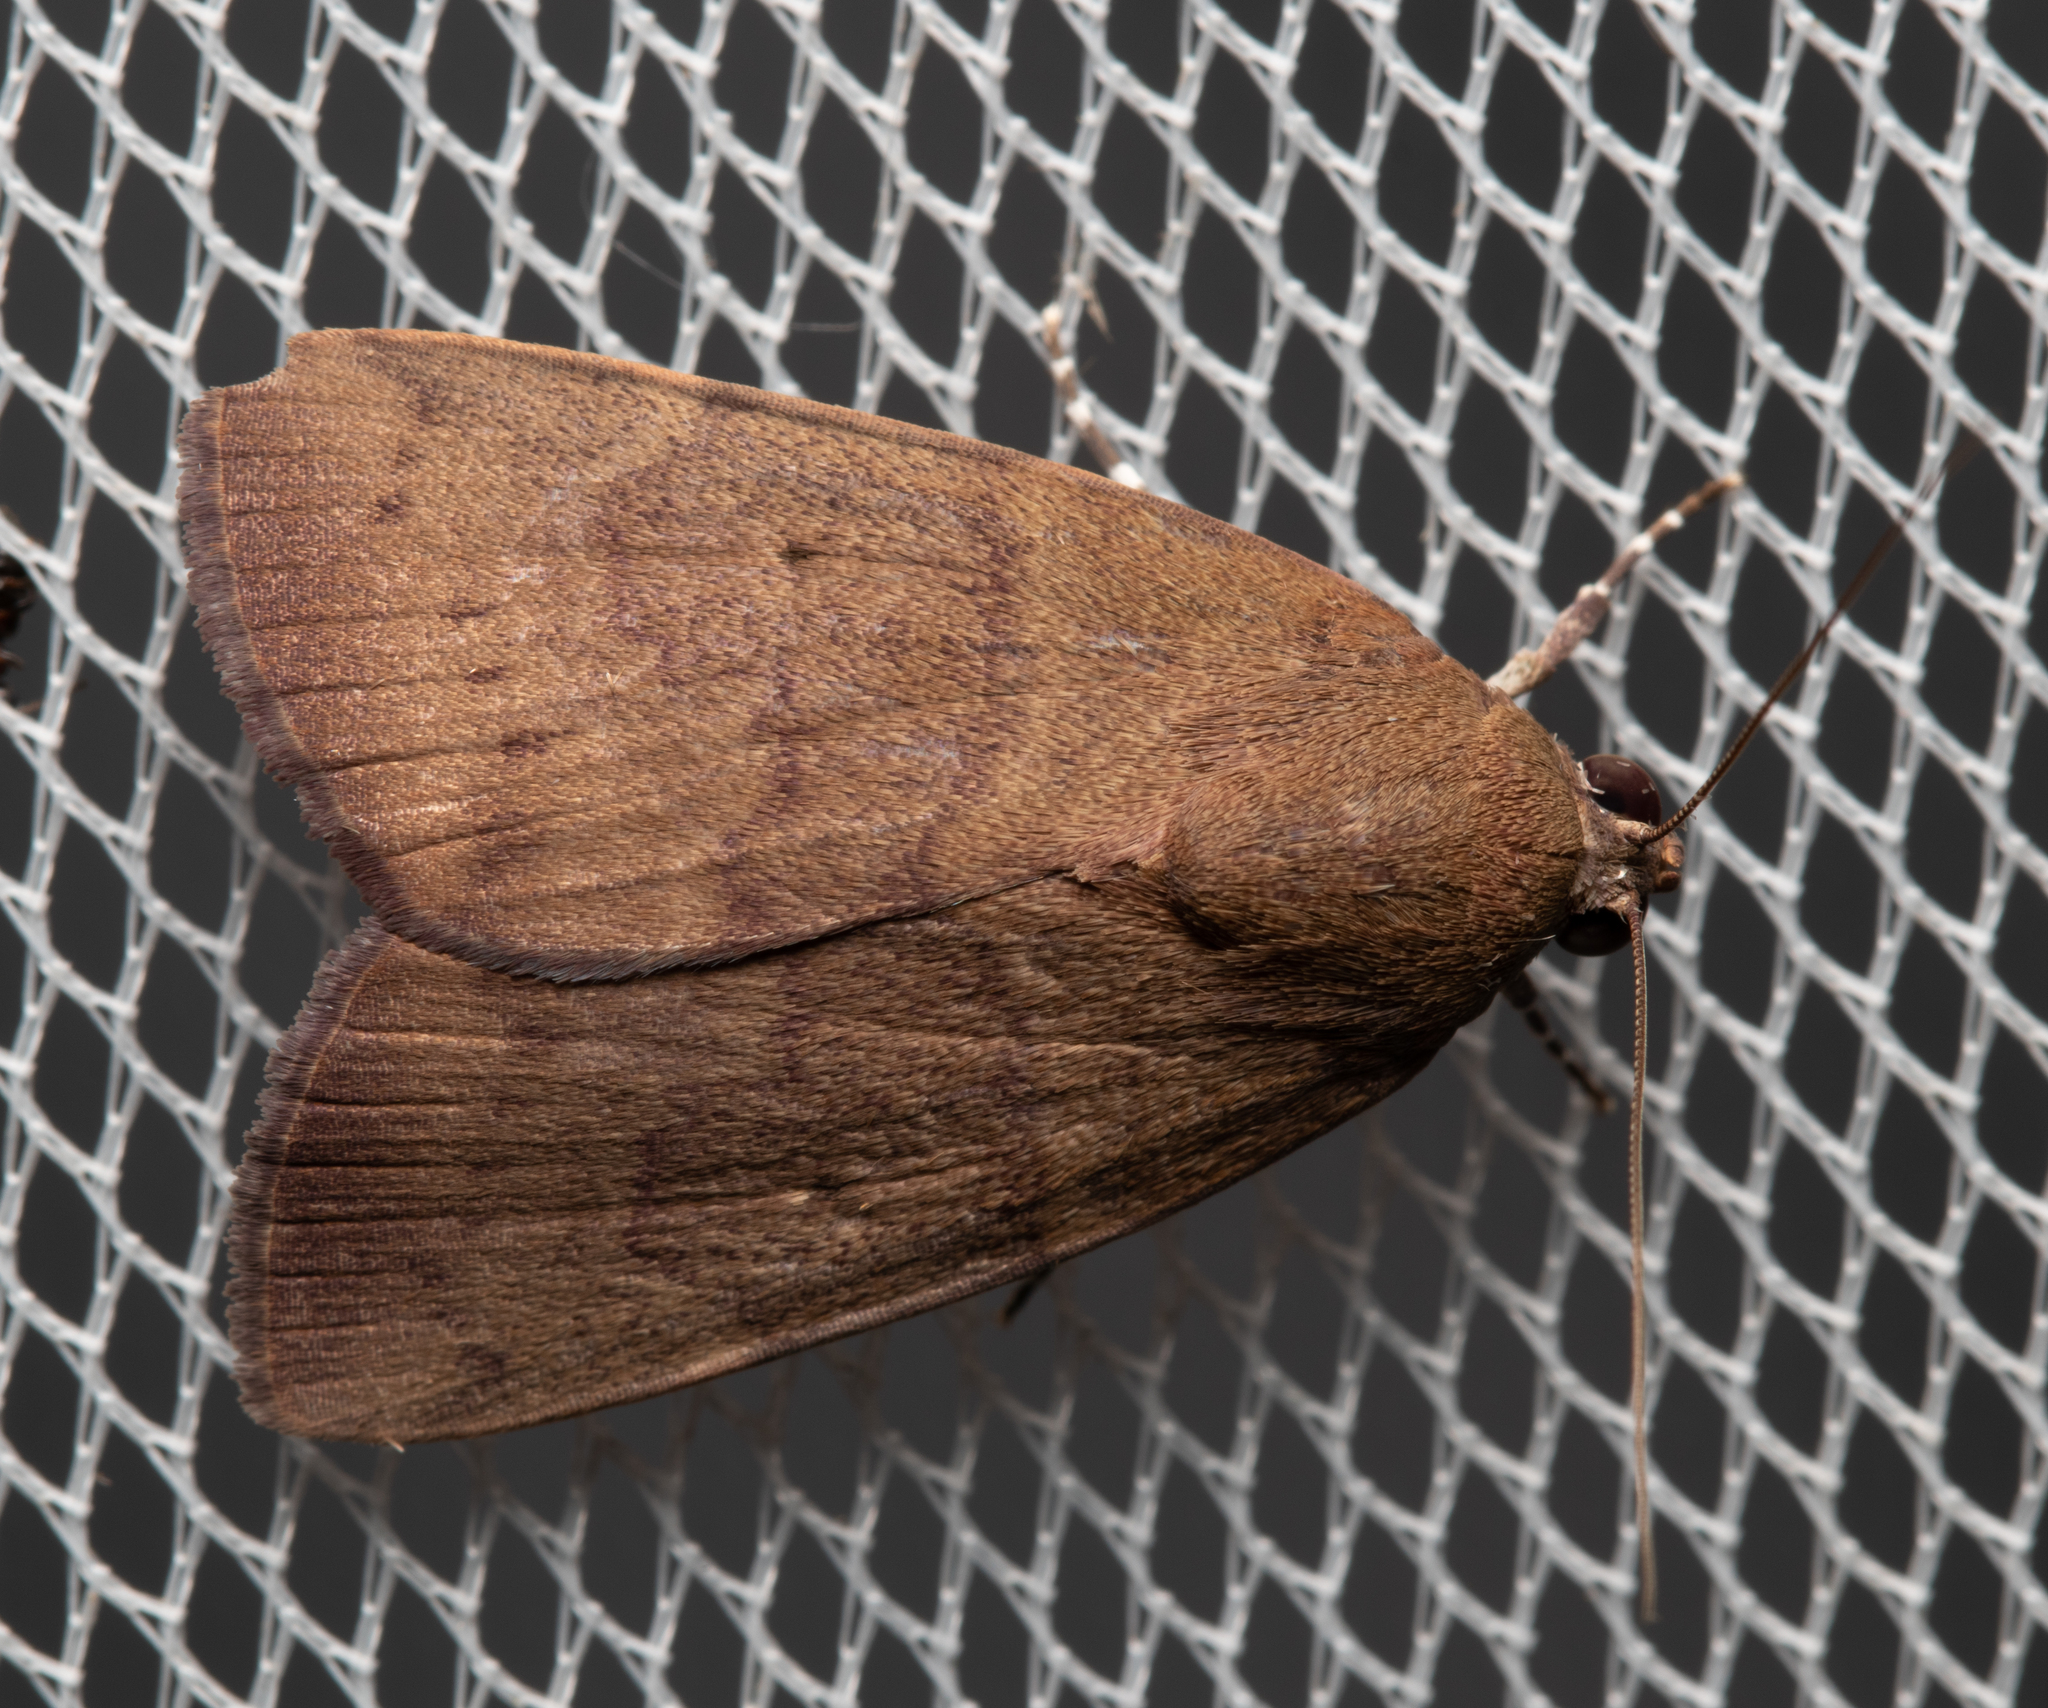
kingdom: Animalia
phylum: Arthropoda
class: Insecta
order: Lepidoptera
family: Nolidae
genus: Maceda
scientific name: Maceda mansueta
